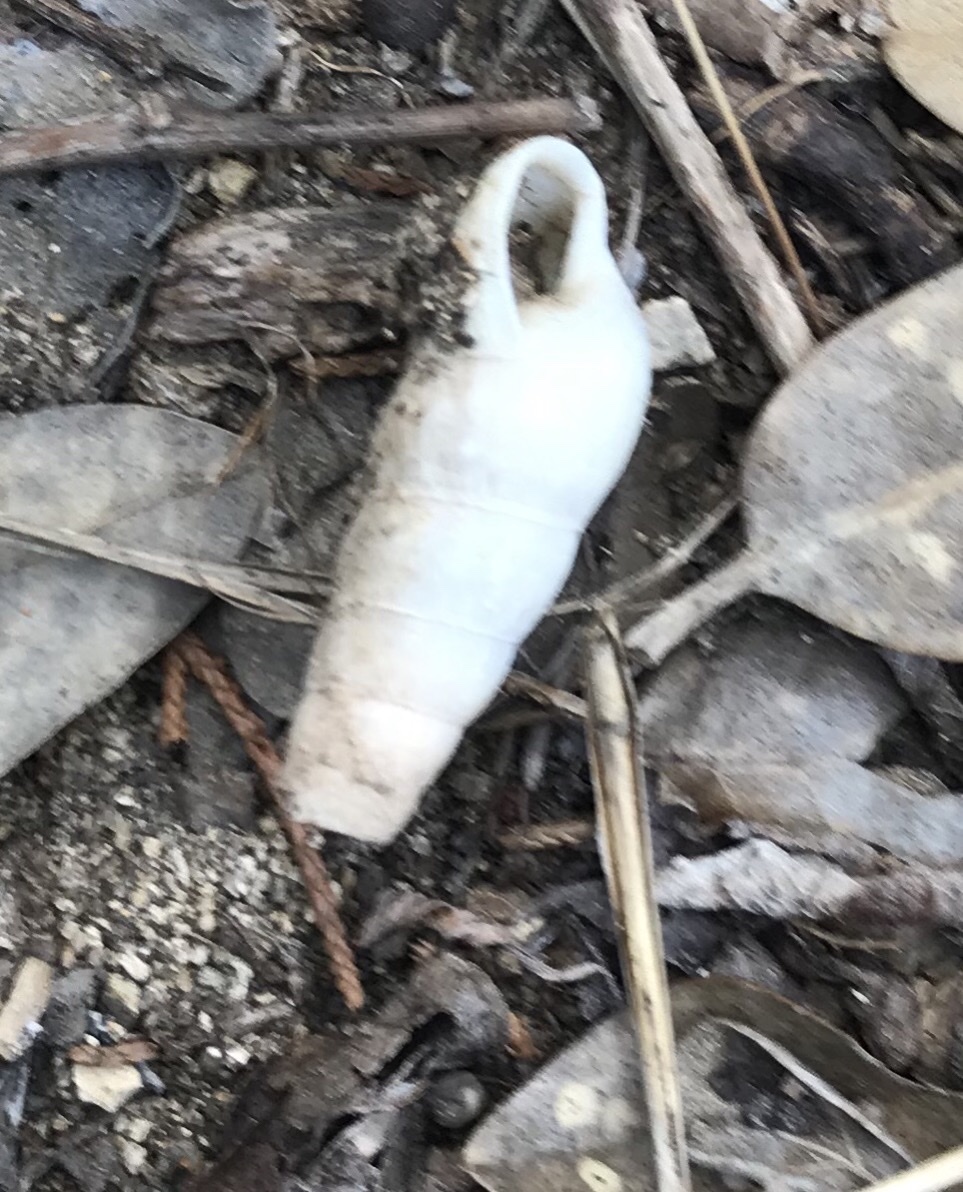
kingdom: Animalia
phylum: Mollusca
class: Gastropoda
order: Stylommatophora
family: Achatinidae
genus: Rumina
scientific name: Rumina decollata
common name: Decollate snail
